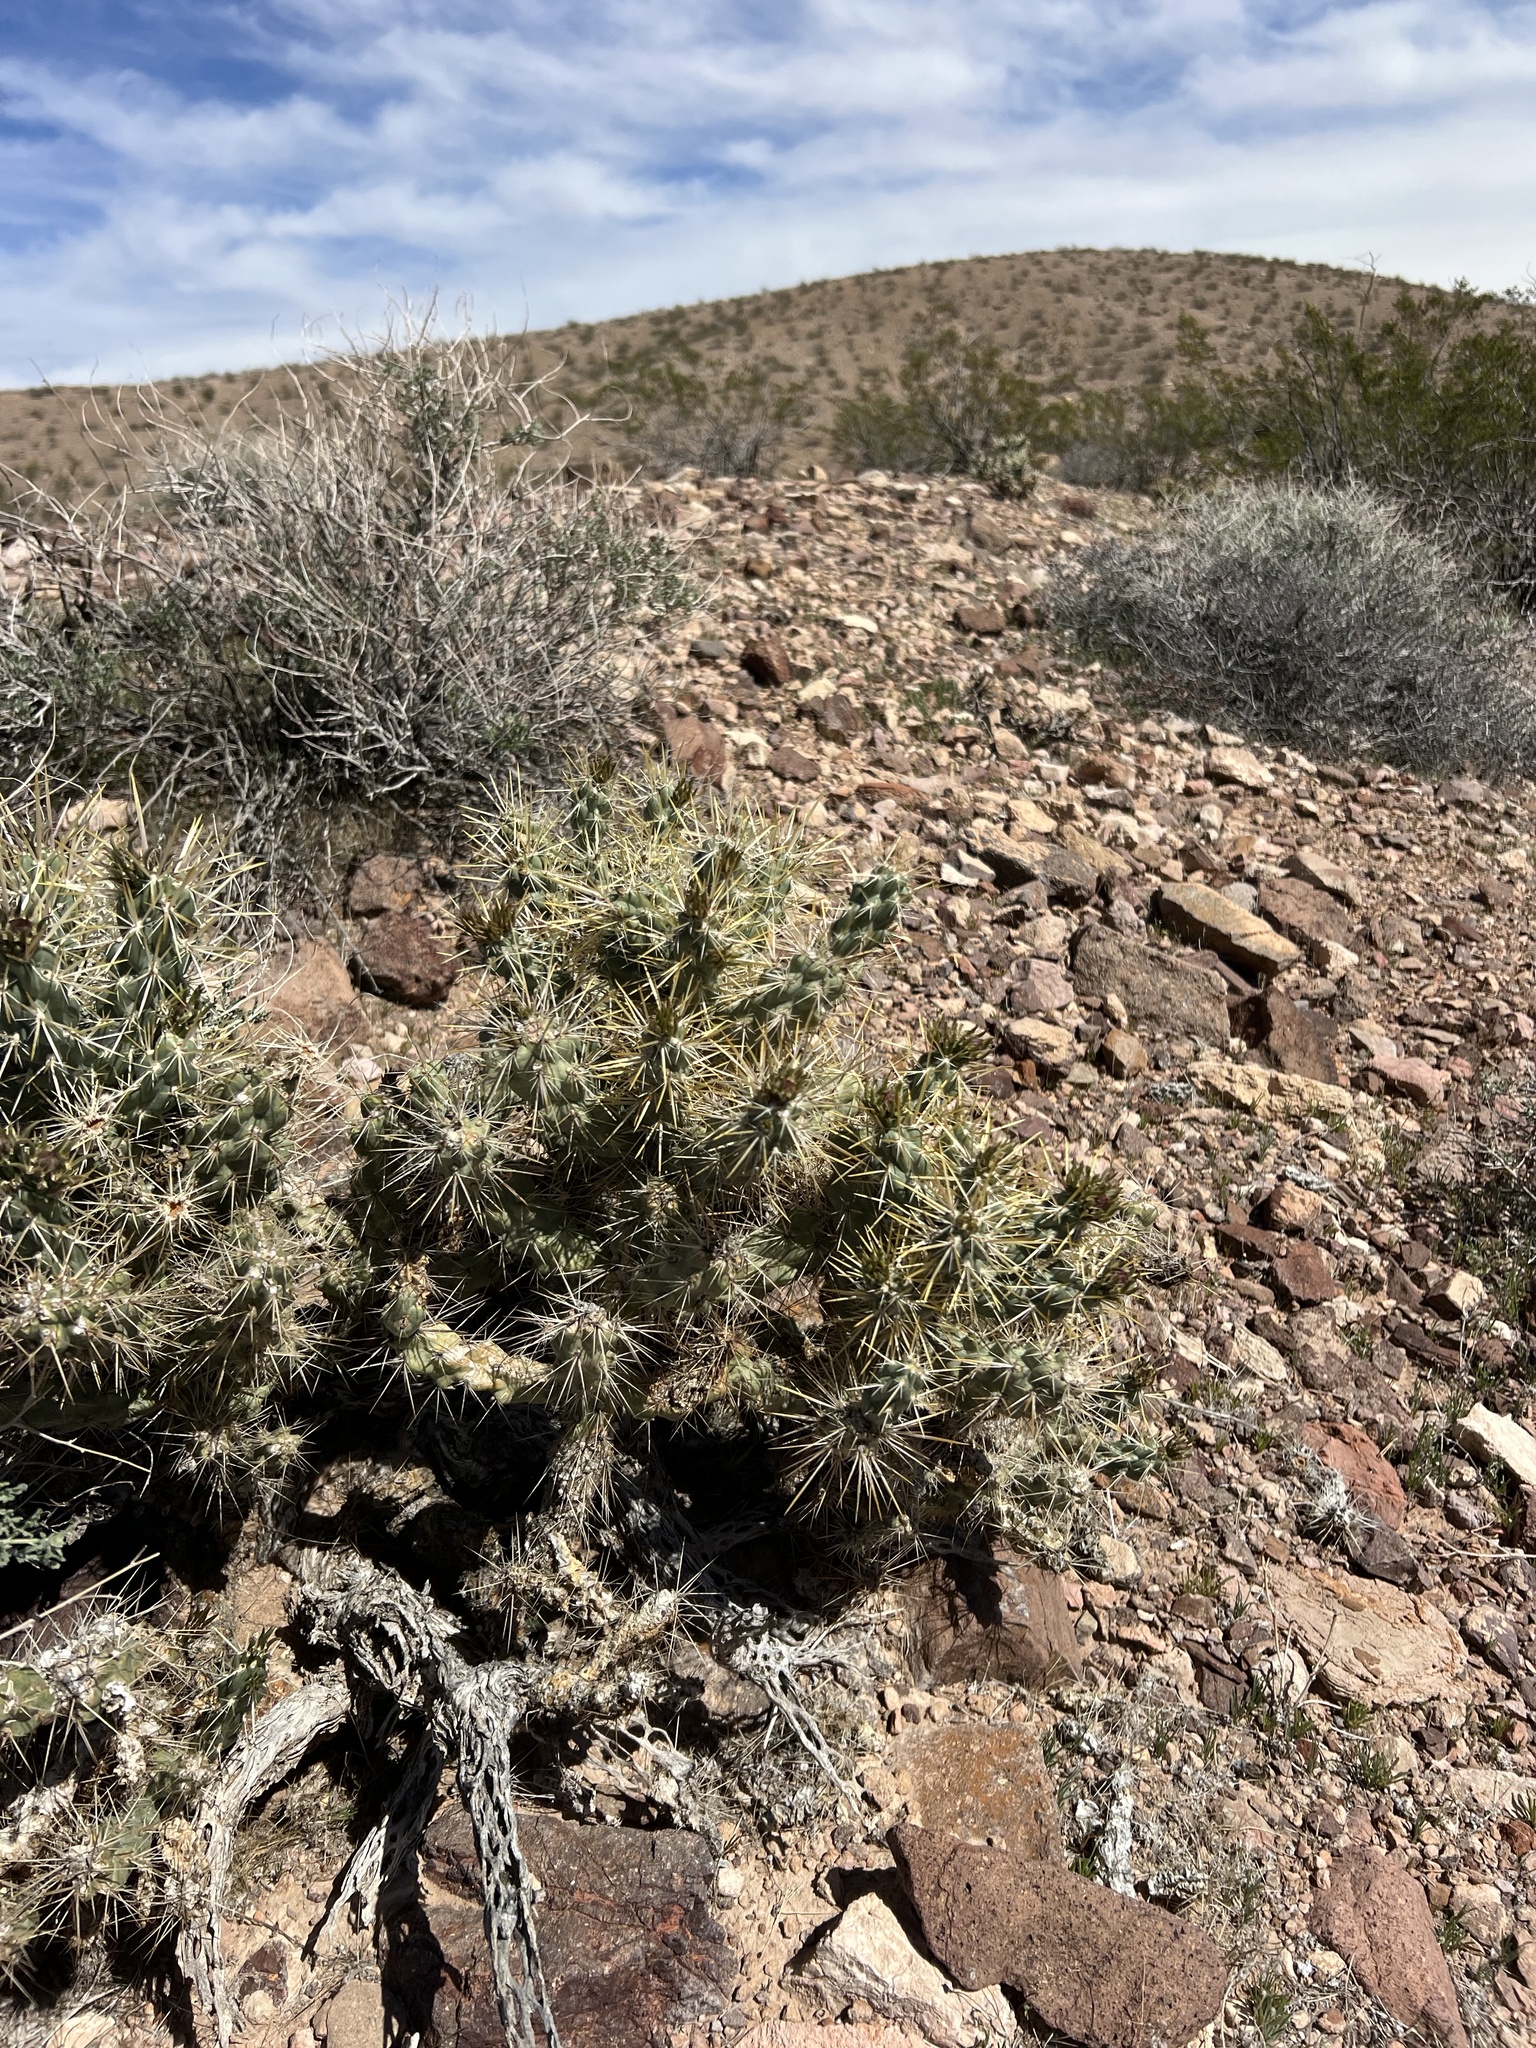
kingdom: Plantae
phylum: Tracheophyta
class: Magnoliopsida
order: Caryophyllales
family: Cactaceae
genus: Cylindropuntia
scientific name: Cylindropuntia echinocarpa
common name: Ground cholla
